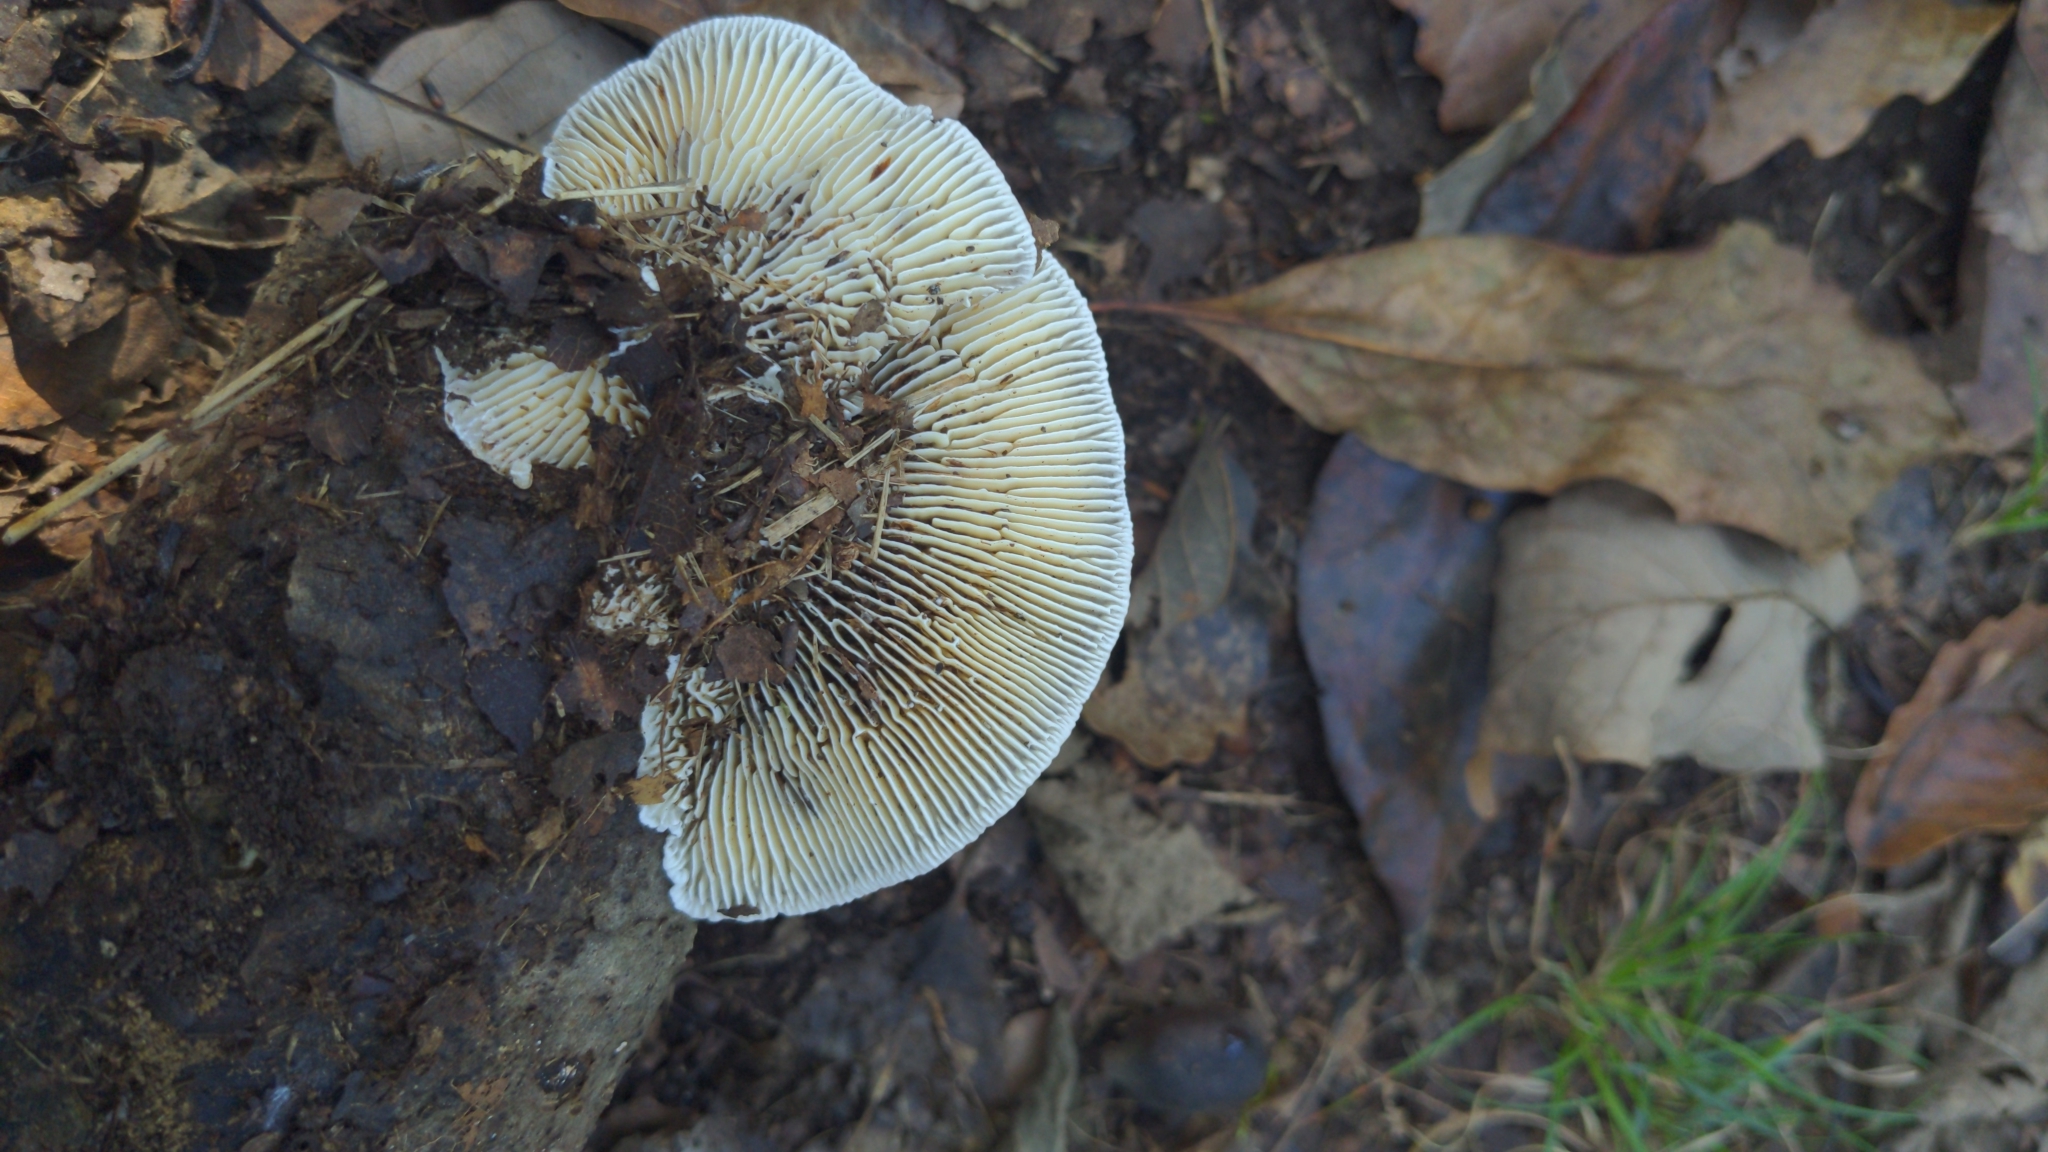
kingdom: Fungi
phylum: Basidiomycota
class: Agaricomycetes
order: Polyporales
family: Polyporaceae
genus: Lenzites
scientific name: Lenzites betulinus
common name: Birch mazegill
